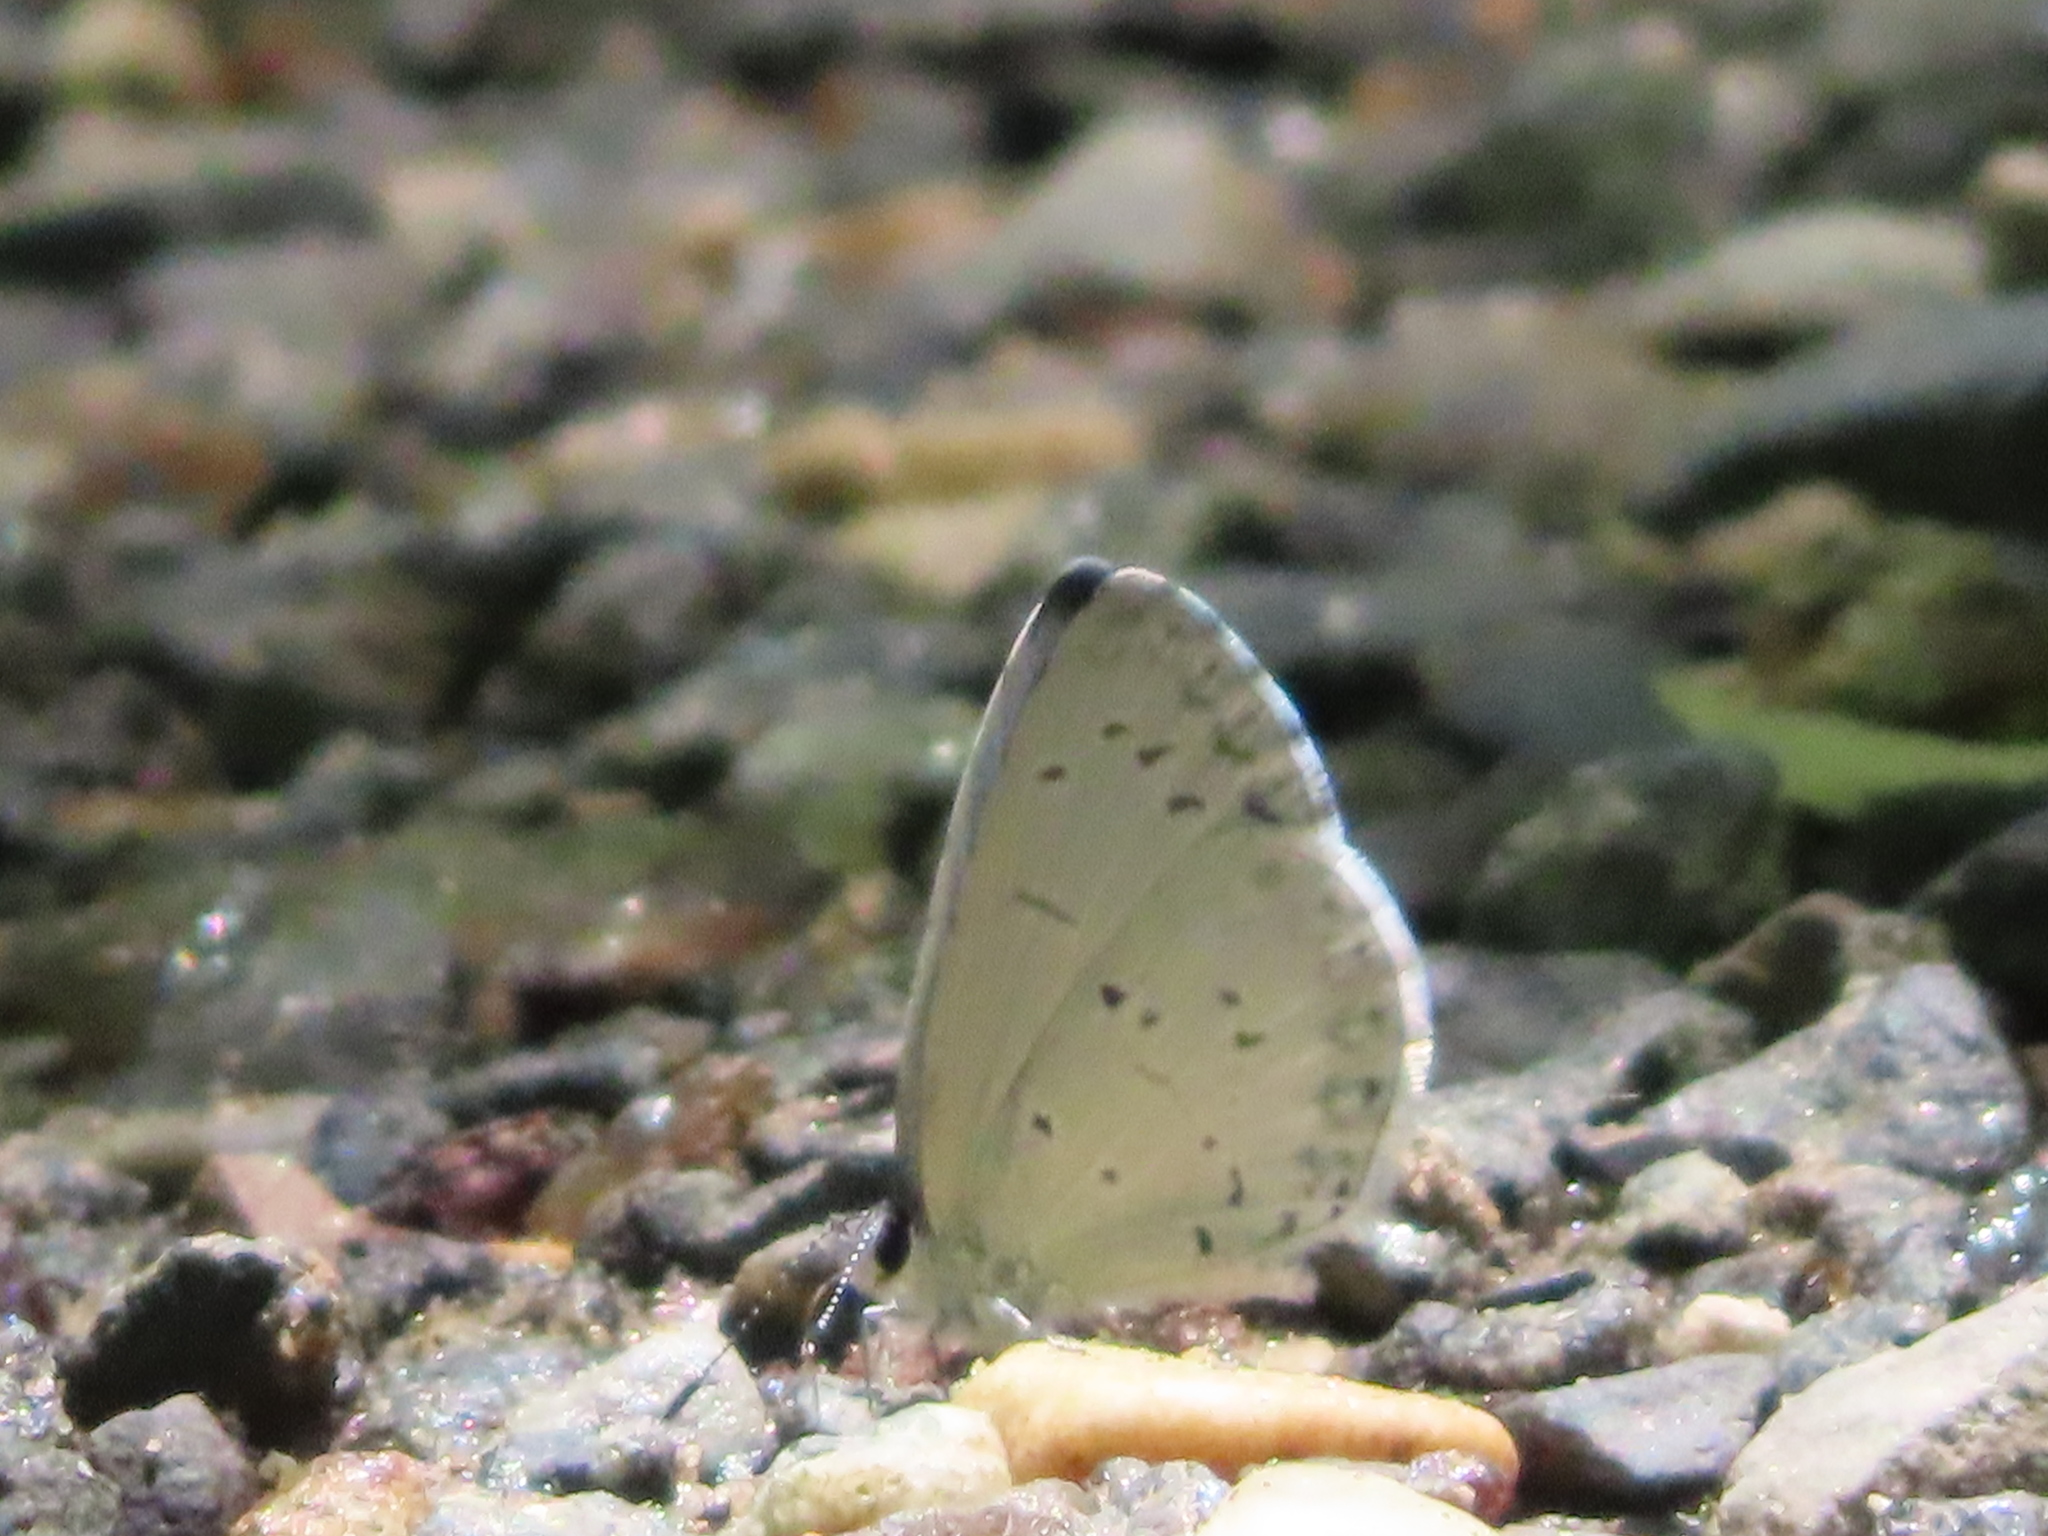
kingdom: Animalia
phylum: Arthropoda
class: Insecta
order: Lepidoptera
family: Lycaenidae
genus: Cyaniris
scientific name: Cyaniris neglecta
